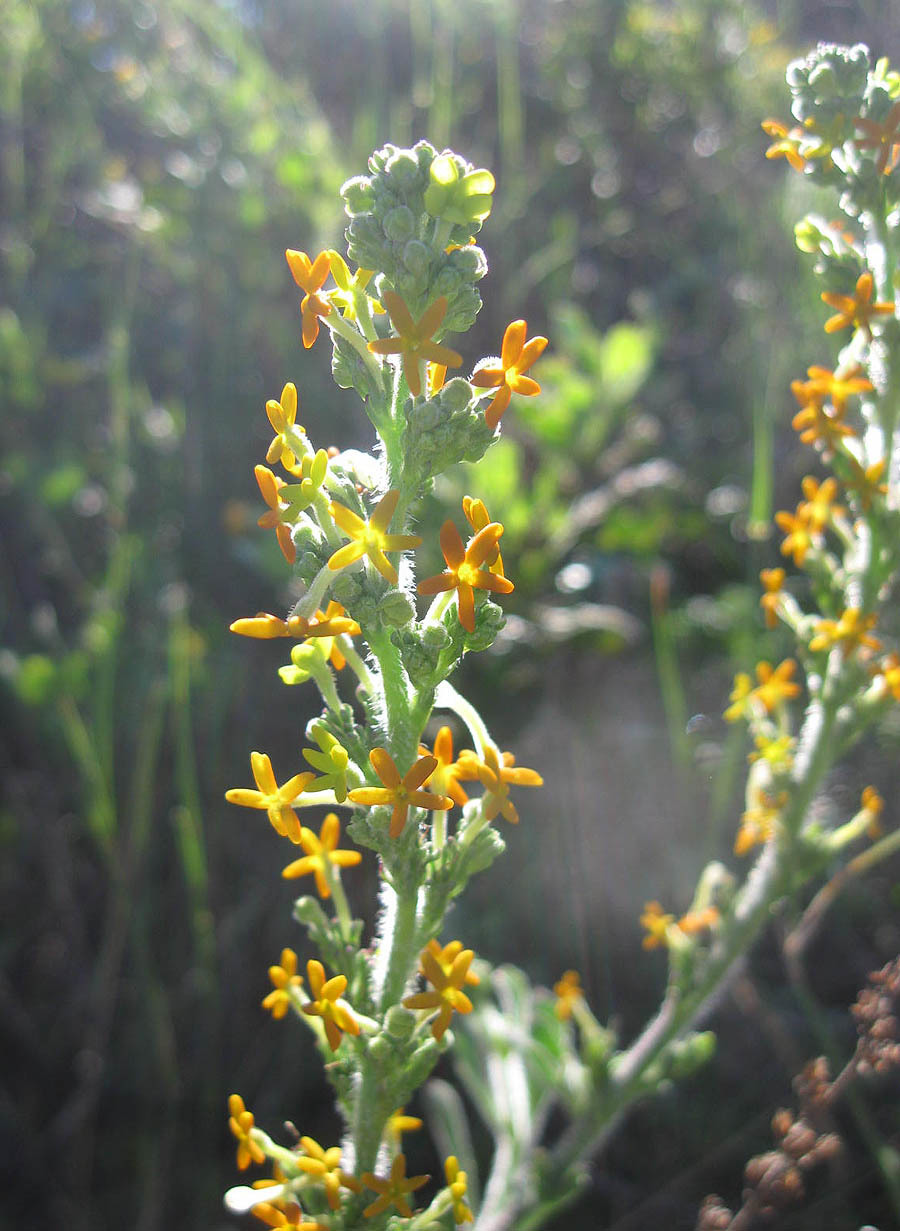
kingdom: Plantae
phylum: Tracheophyta
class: Magnoliopsida
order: Lamiales
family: Scrophulariaceae
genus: Manulea
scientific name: Manulea tomentosa
